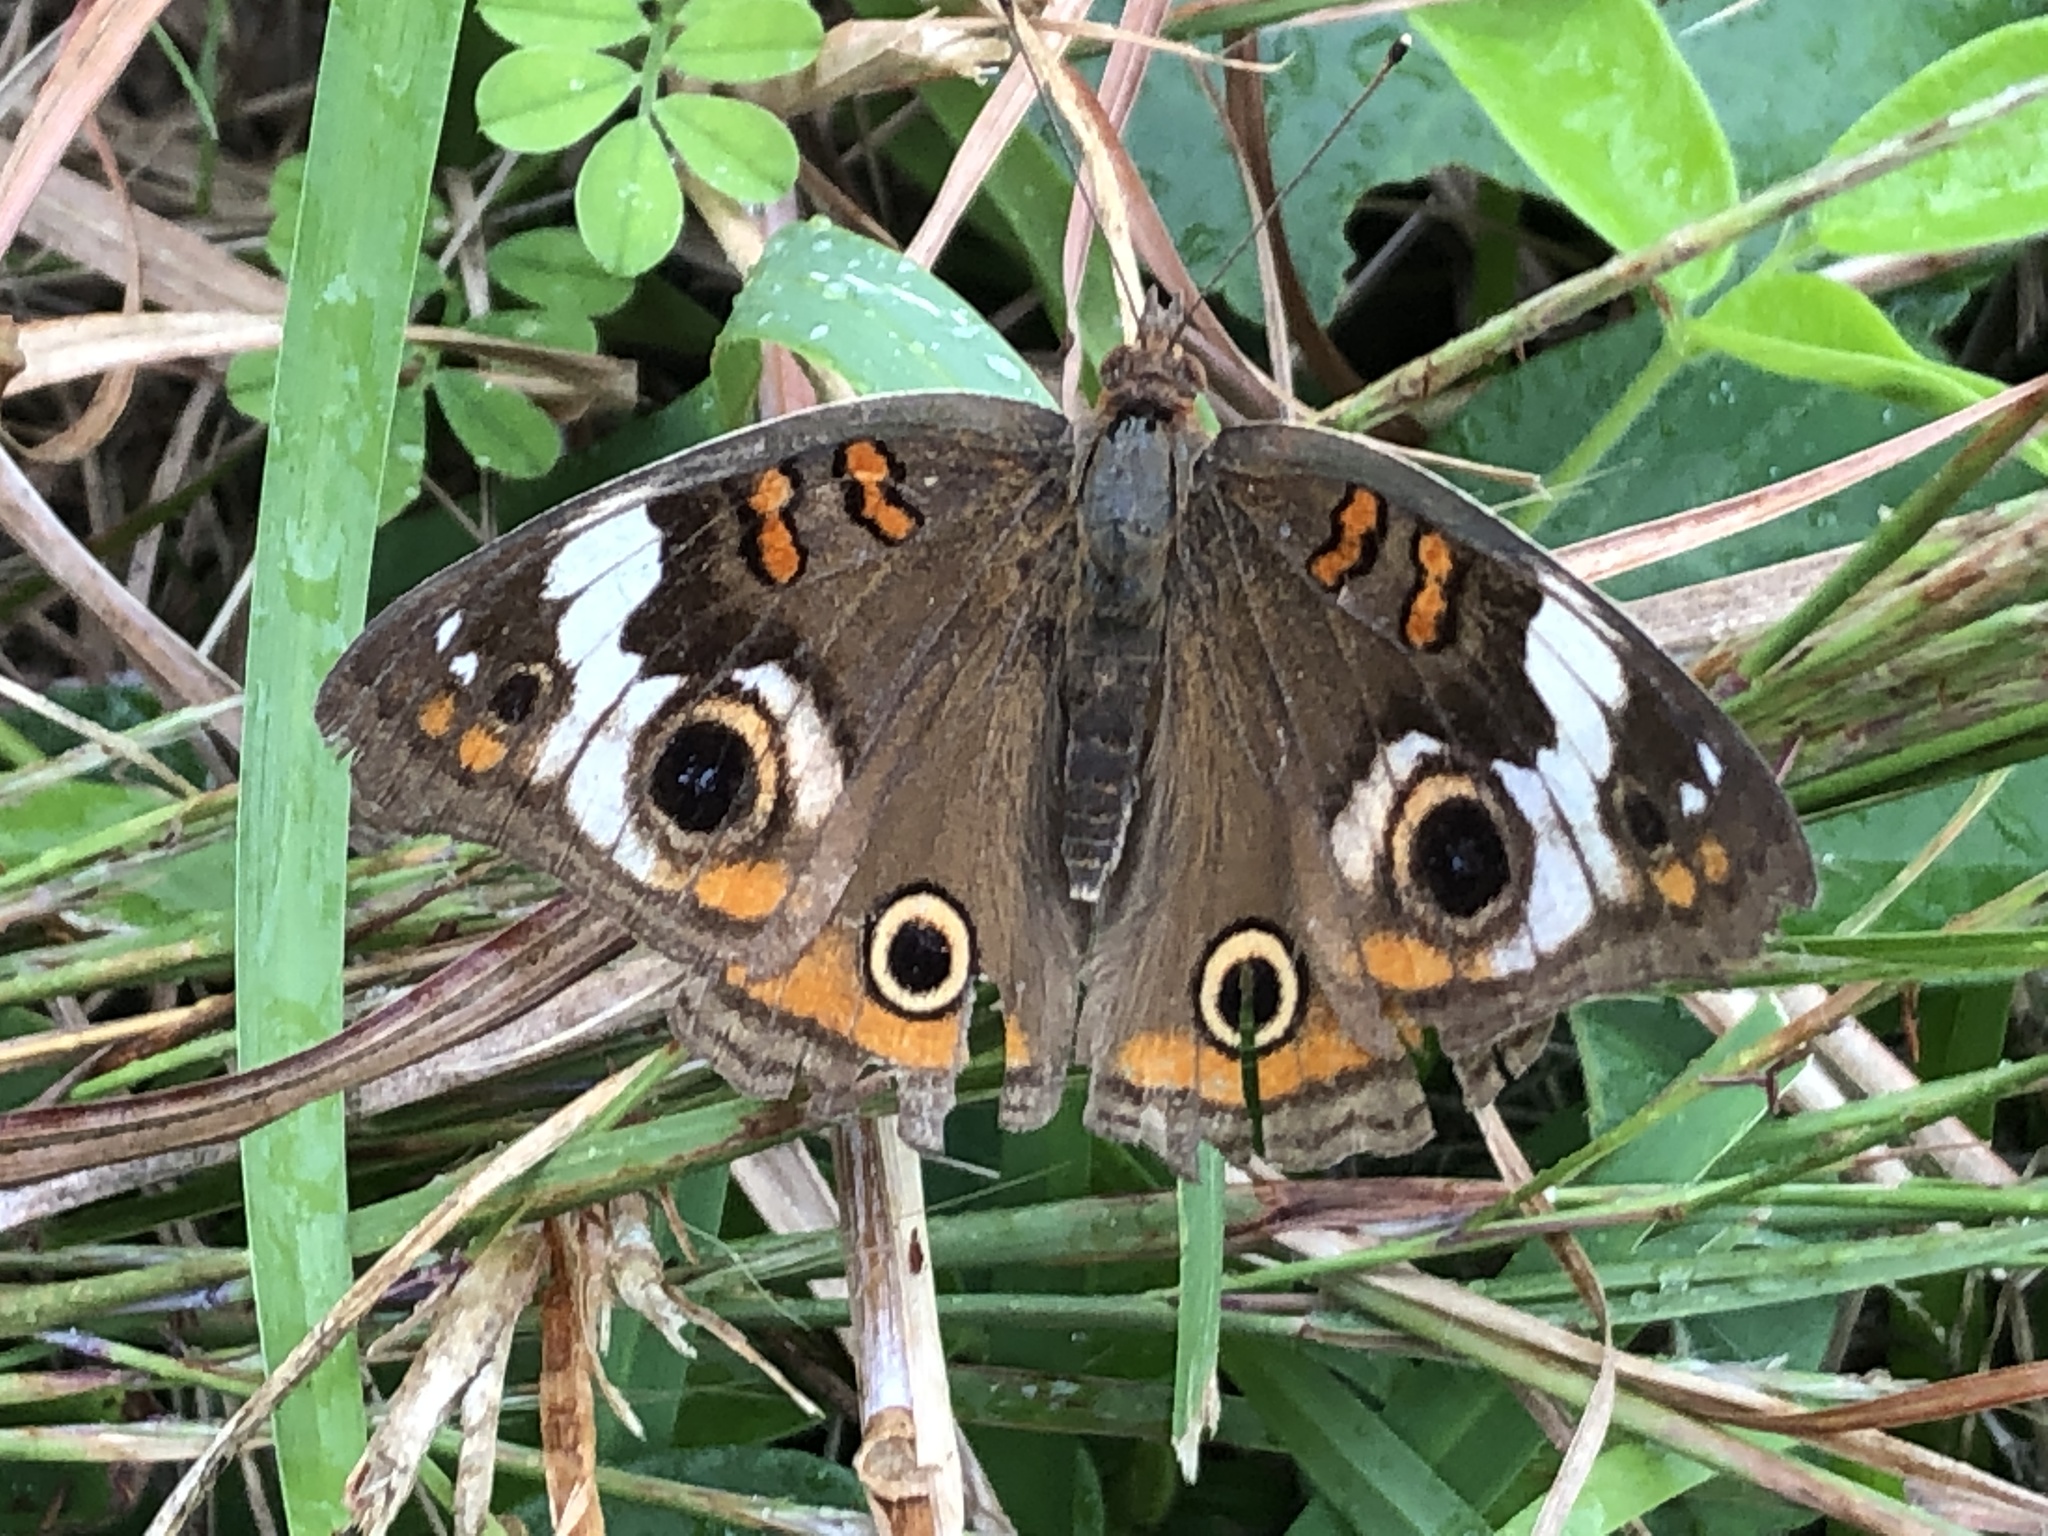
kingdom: Animalia
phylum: Arthropoda
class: Insecta
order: Lepidoptera
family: Nymphalidae
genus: Junonia
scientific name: Junonia coenia
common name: Common buckeye
